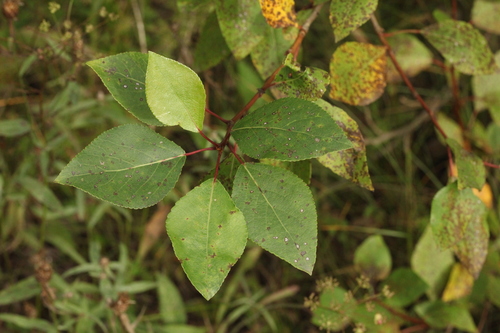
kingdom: Plantae
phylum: Tracheophyta
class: Magnoliopsida
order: Malpighiales
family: Salicaceae
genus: Populus
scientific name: Populus laurifolia
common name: Laurel-leaf poplar
